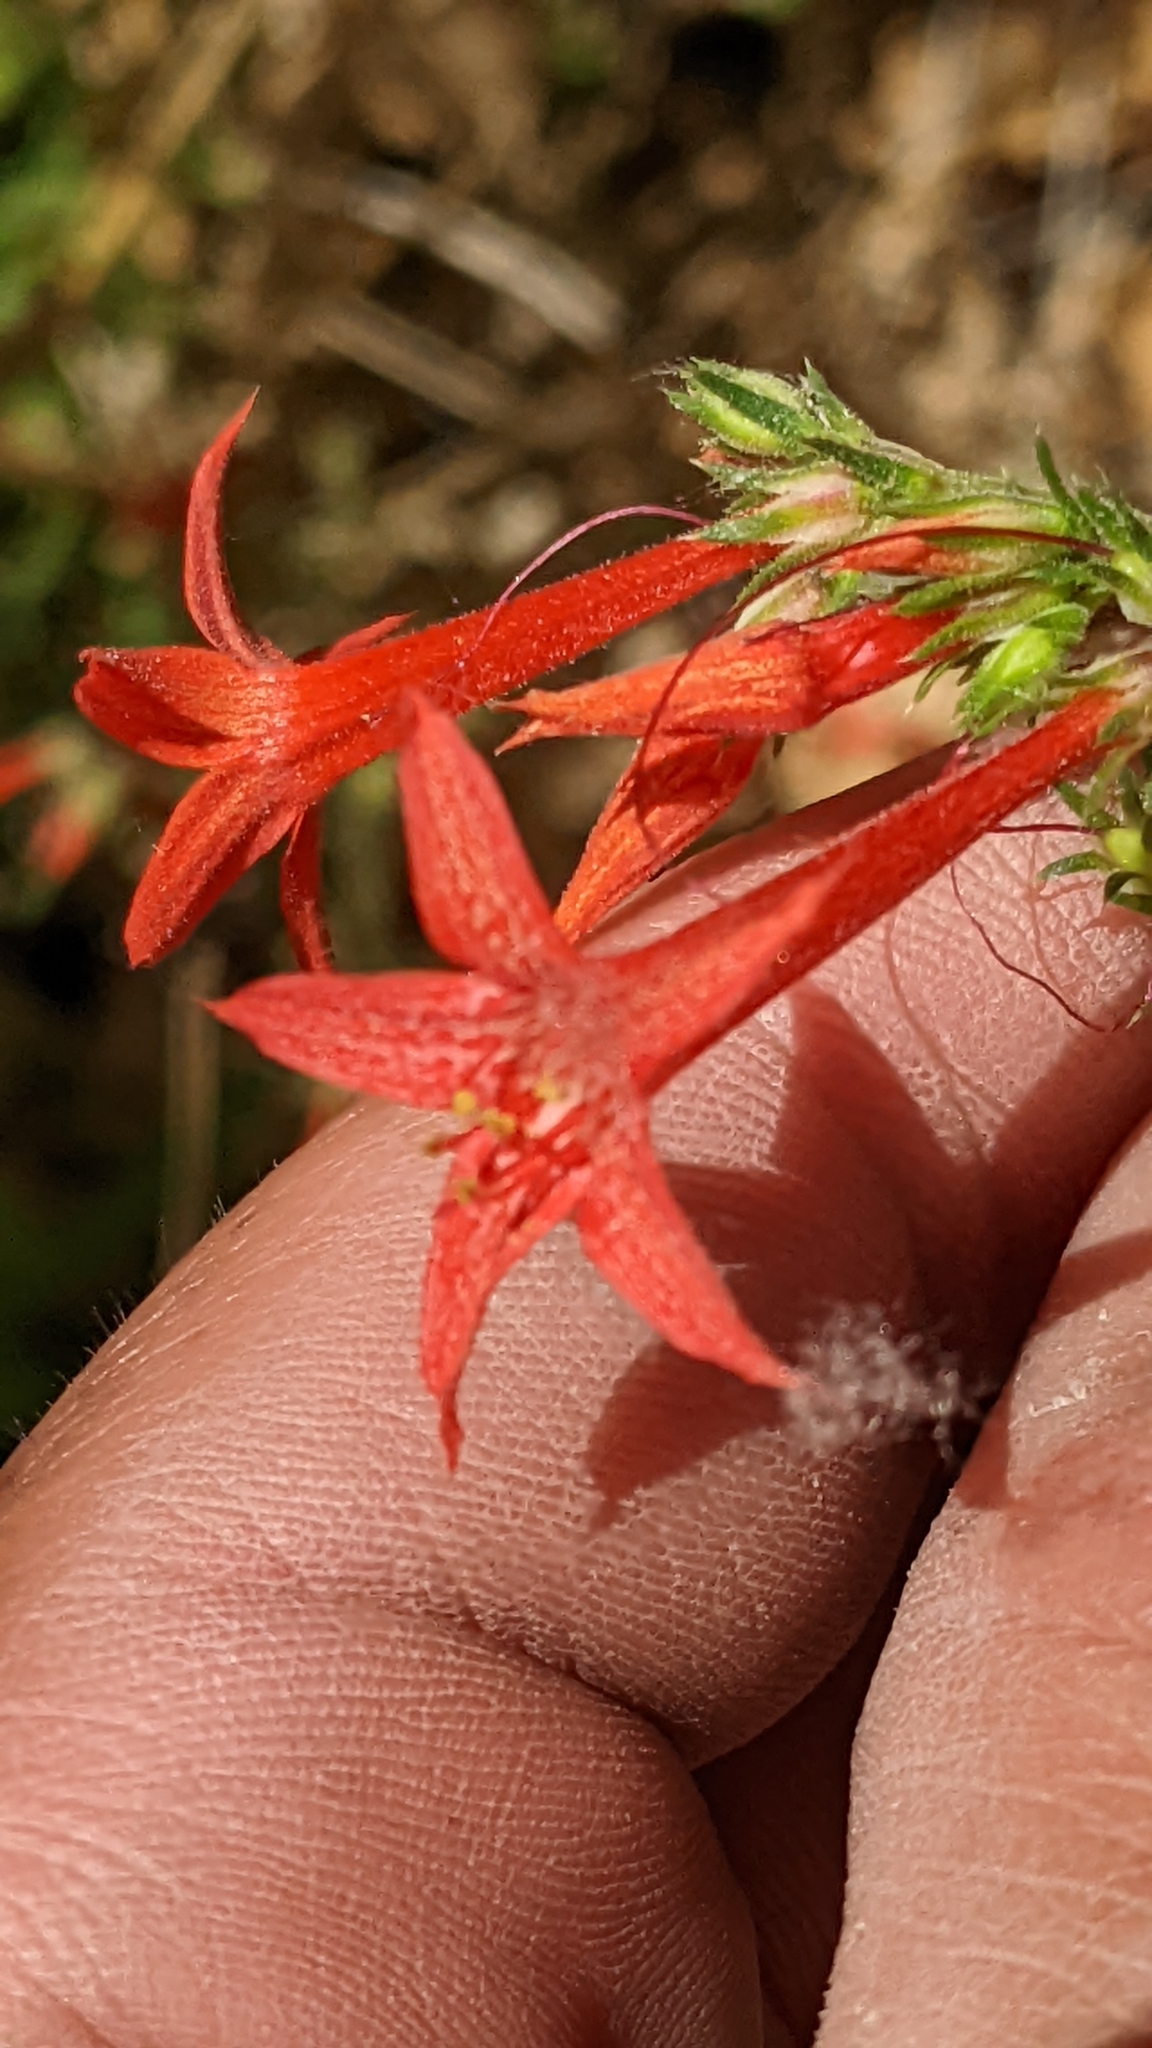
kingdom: Plantae
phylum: Tracheophyta
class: Magnoliopsida
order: Ericales
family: Polemoniaceae
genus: Ipomopsis
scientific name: Ipomopsis aggregata
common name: Scarlet gilia
